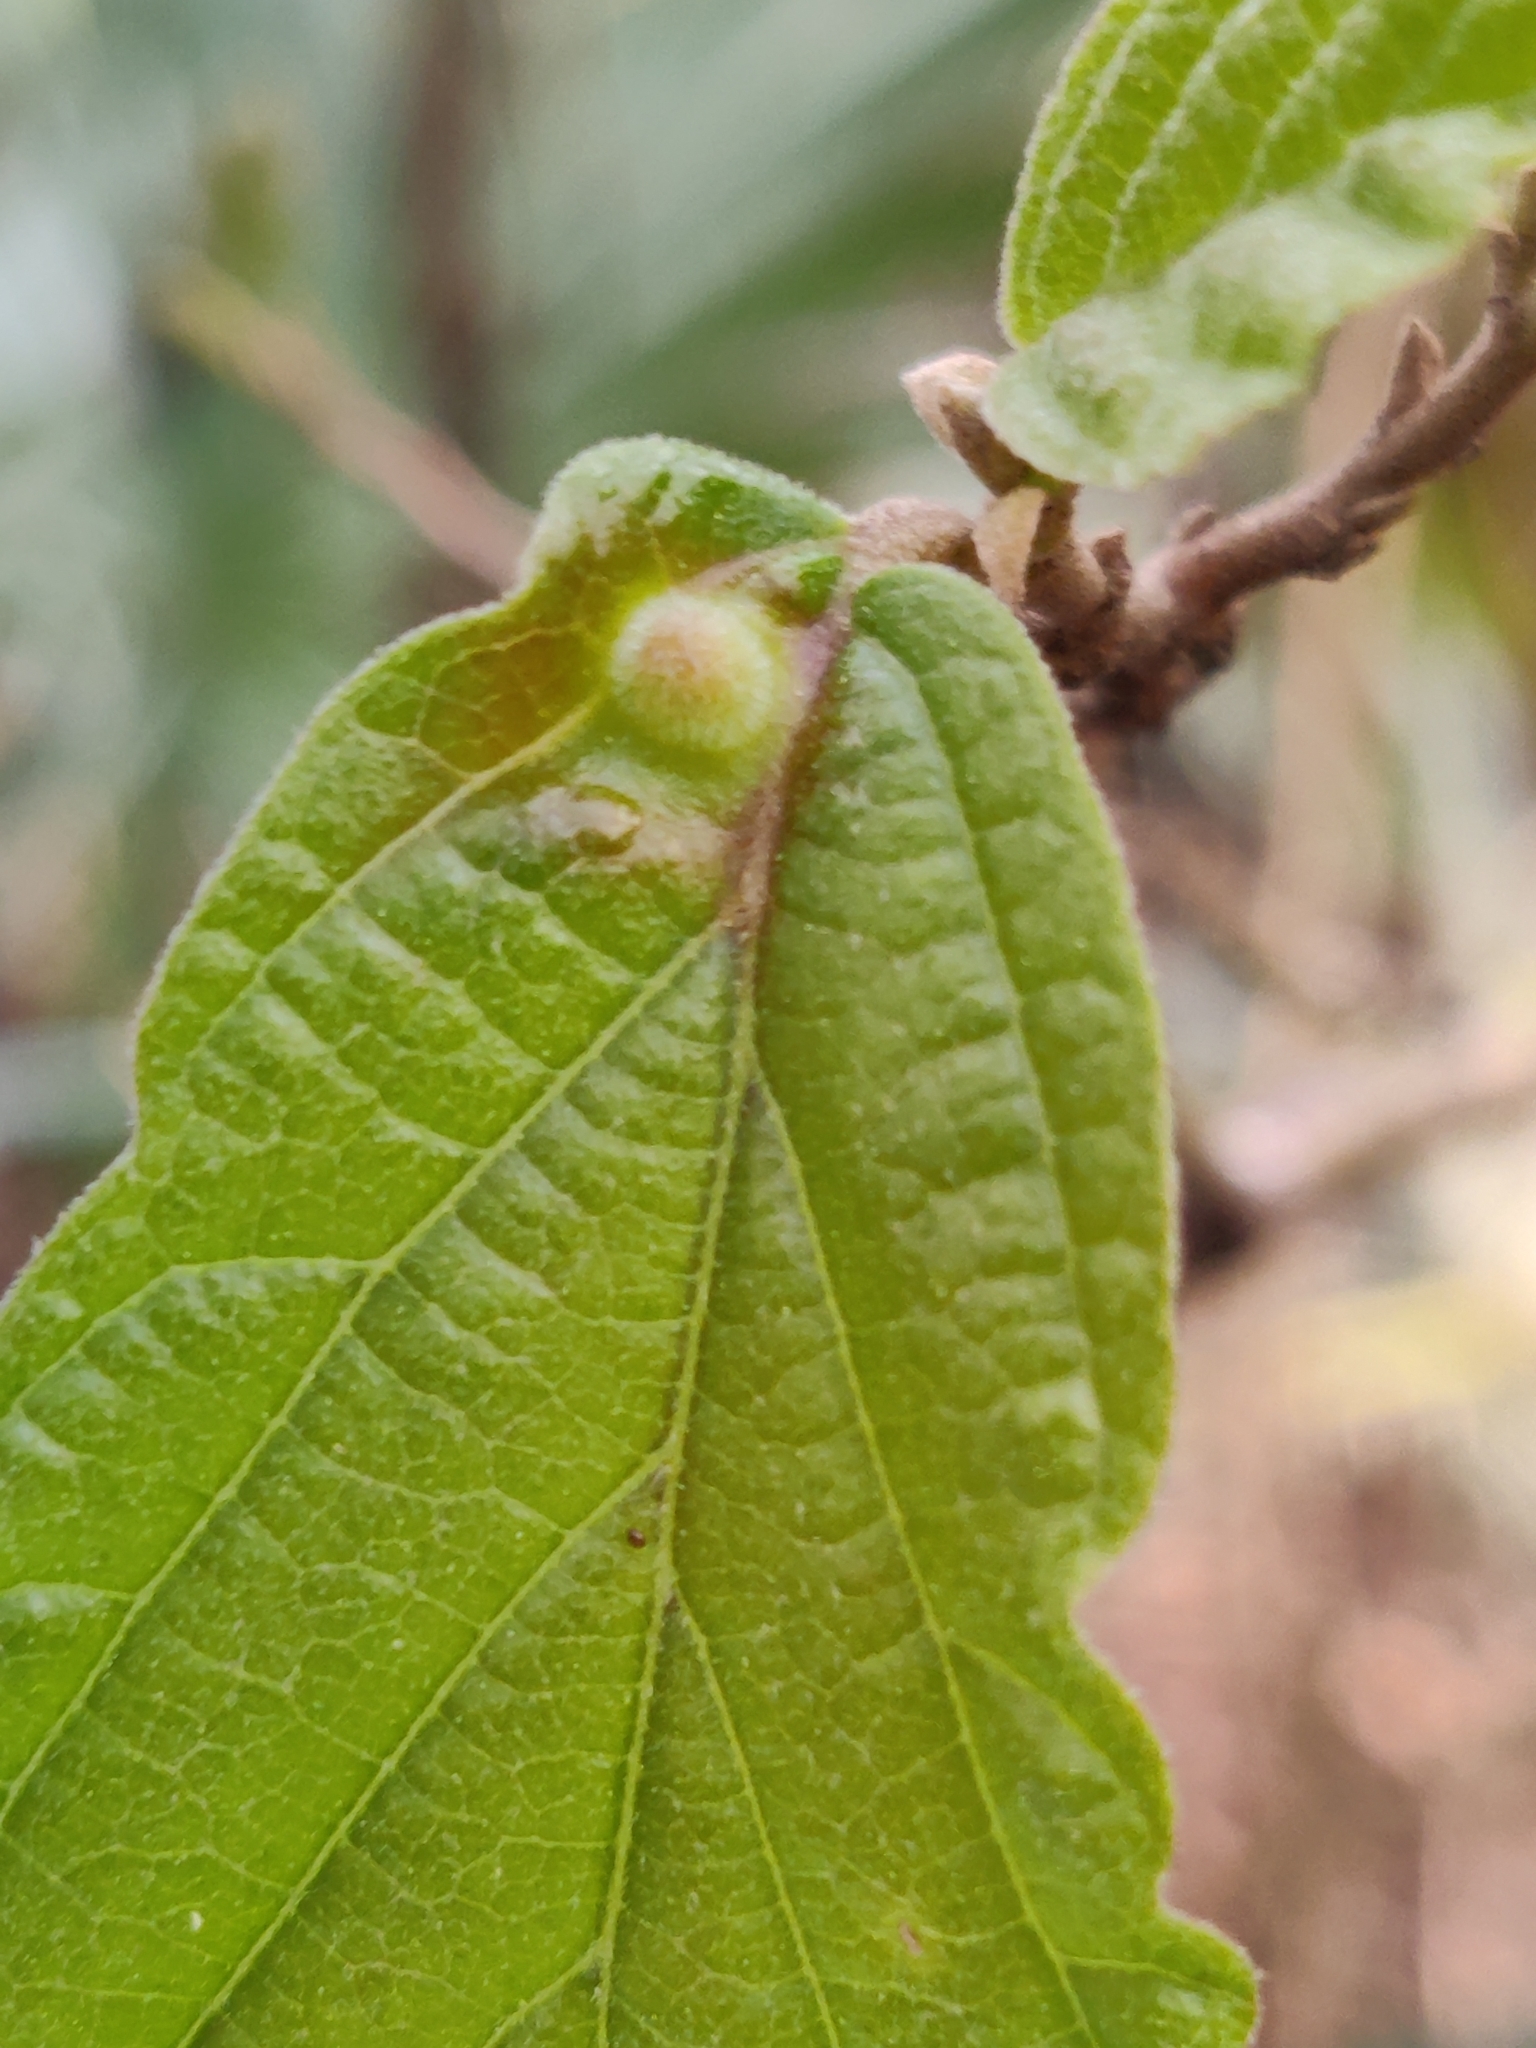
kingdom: Animalia
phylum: Arthropoda
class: Insecta
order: Hemiptera
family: Aphididae
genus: Hormaphis
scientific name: Hormaphis hamamelidis
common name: Witch-hazel cone gall aphid
